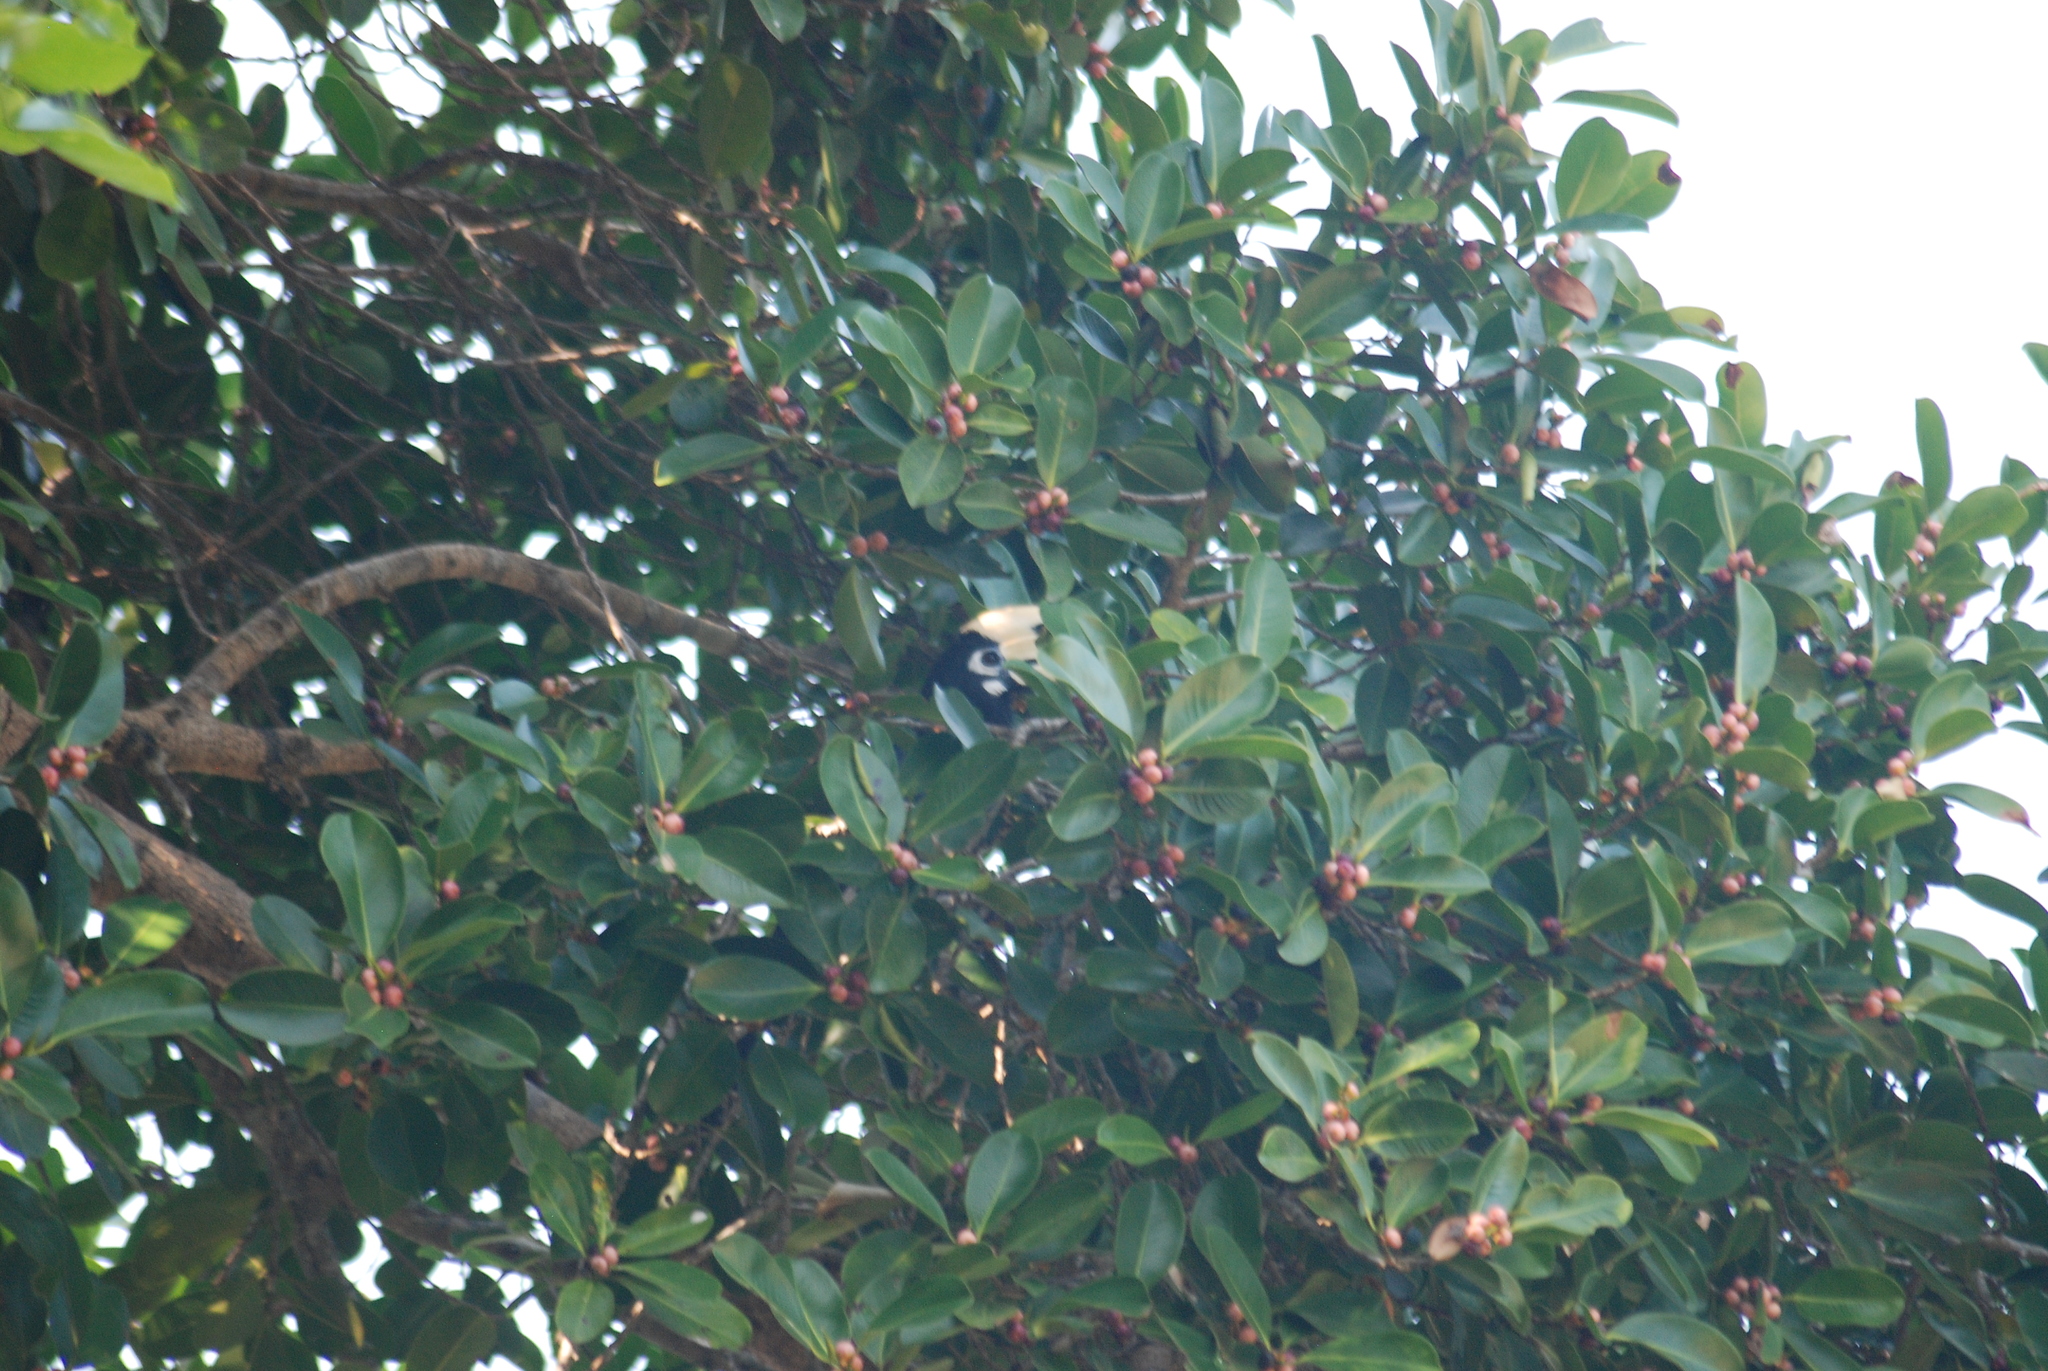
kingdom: Animalia
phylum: Chordata
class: Aves
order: Bucerotiformes
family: Bucerotidae
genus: Anthracoceros
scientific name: Anthracoceros albirostris
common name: Oriental pied-hornbill
